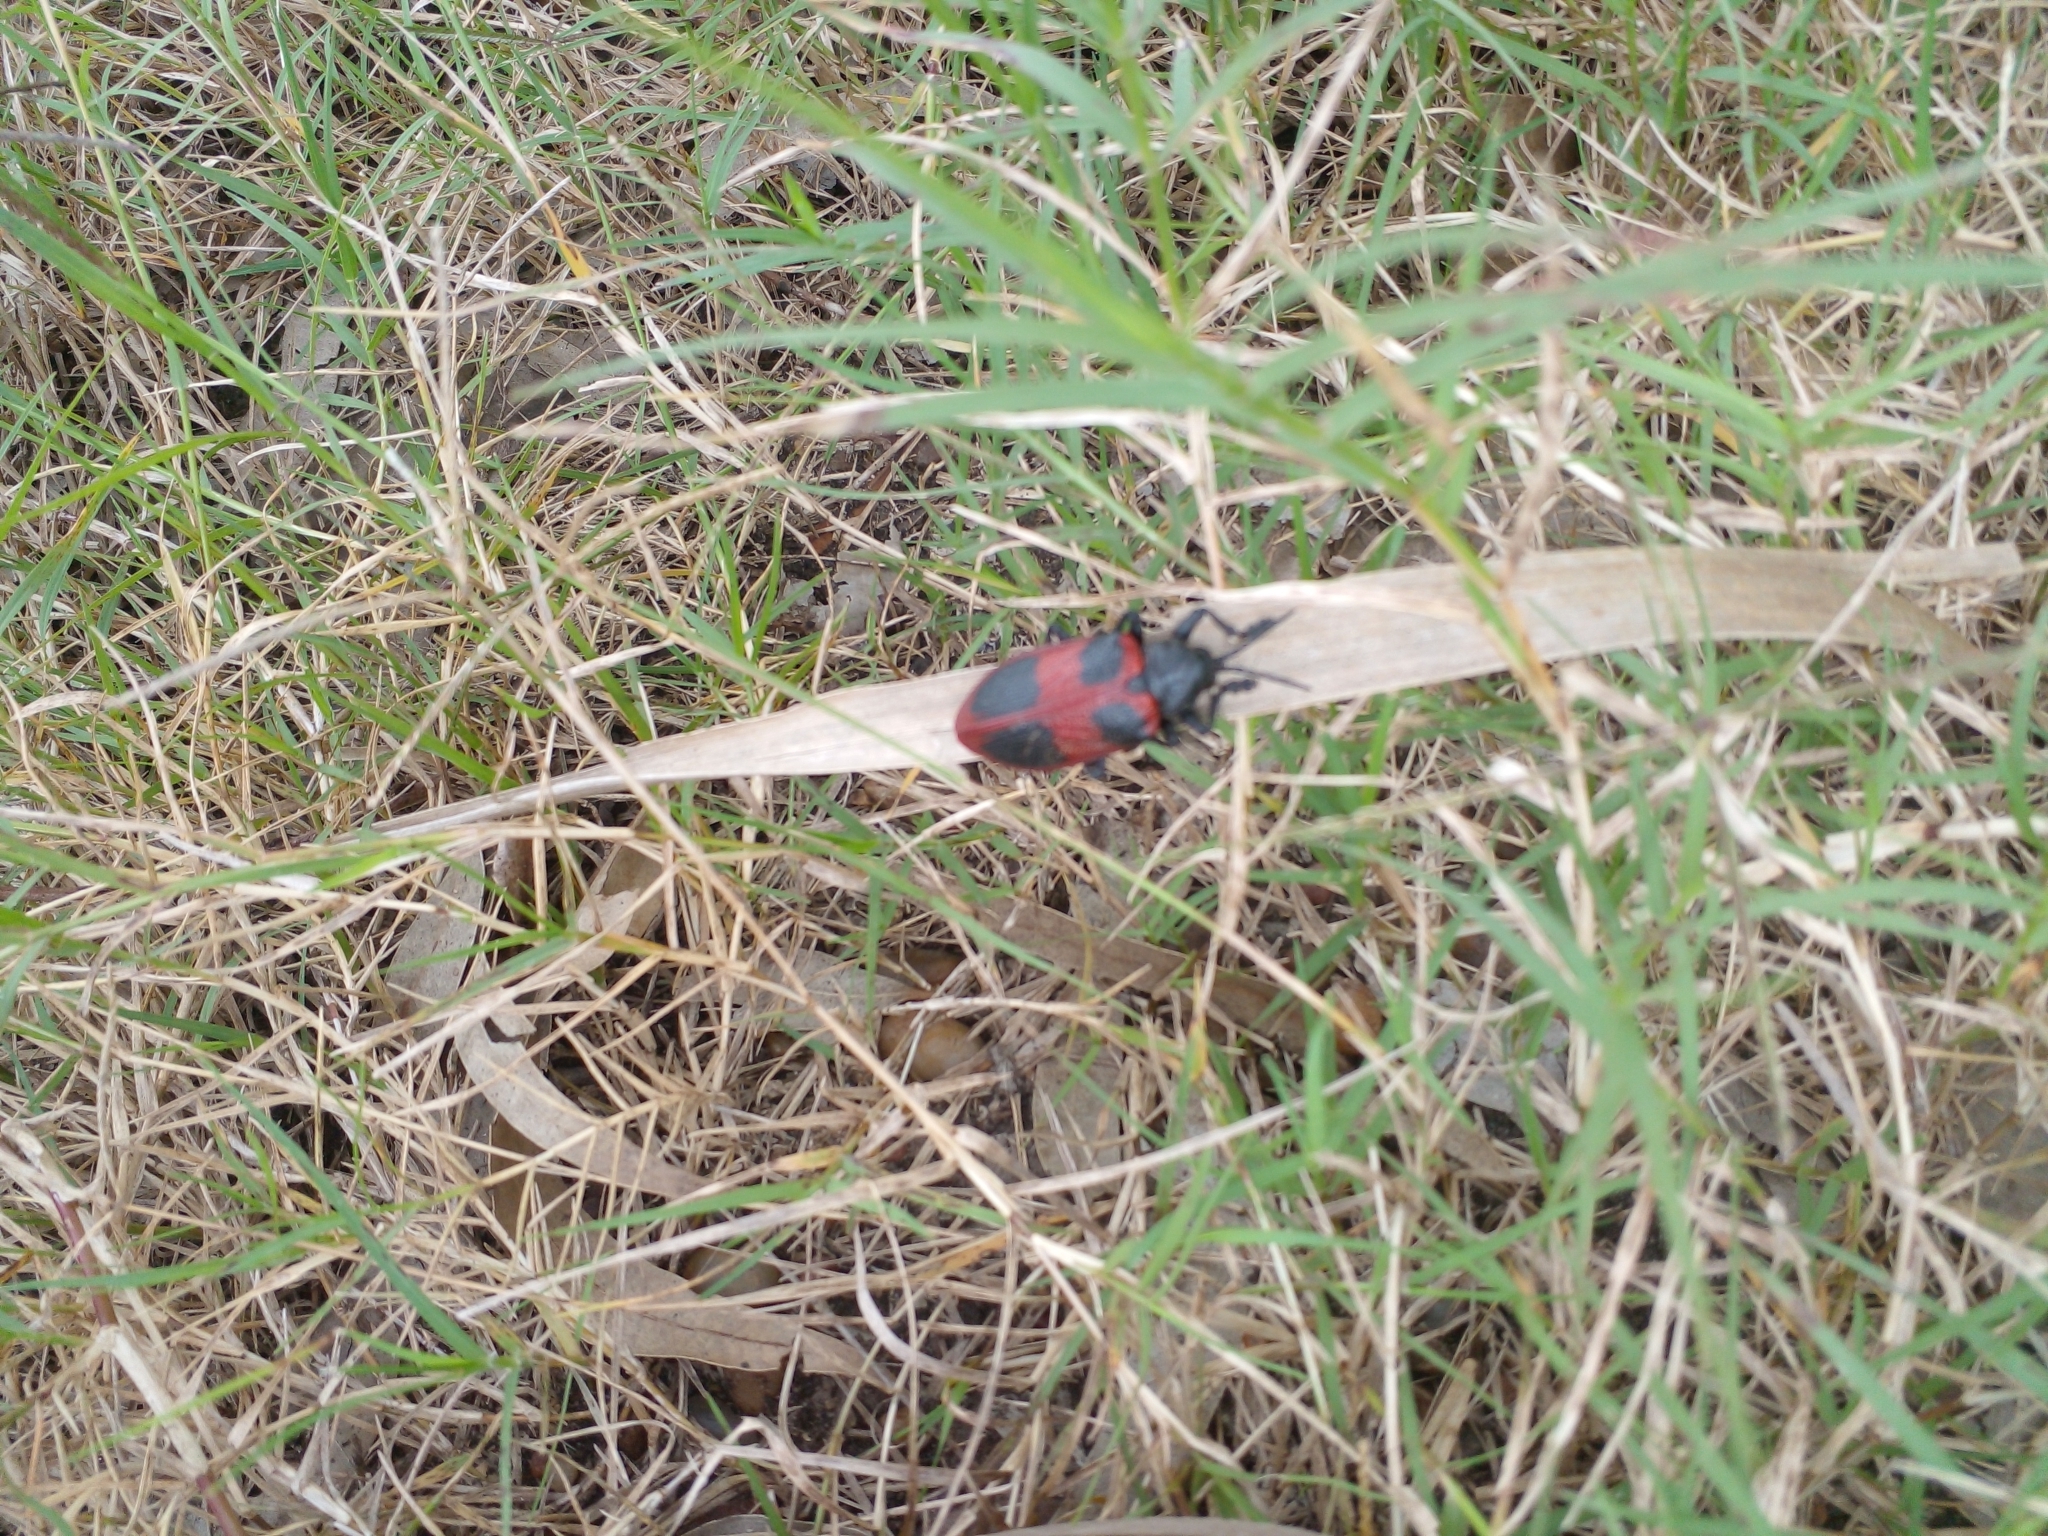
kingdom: Animalia
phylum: Arthropoda
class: Insecta
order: Coleoptera
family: Chrysomelidae
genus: Coraliomela
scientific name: Coraliomela quadrimaculata
